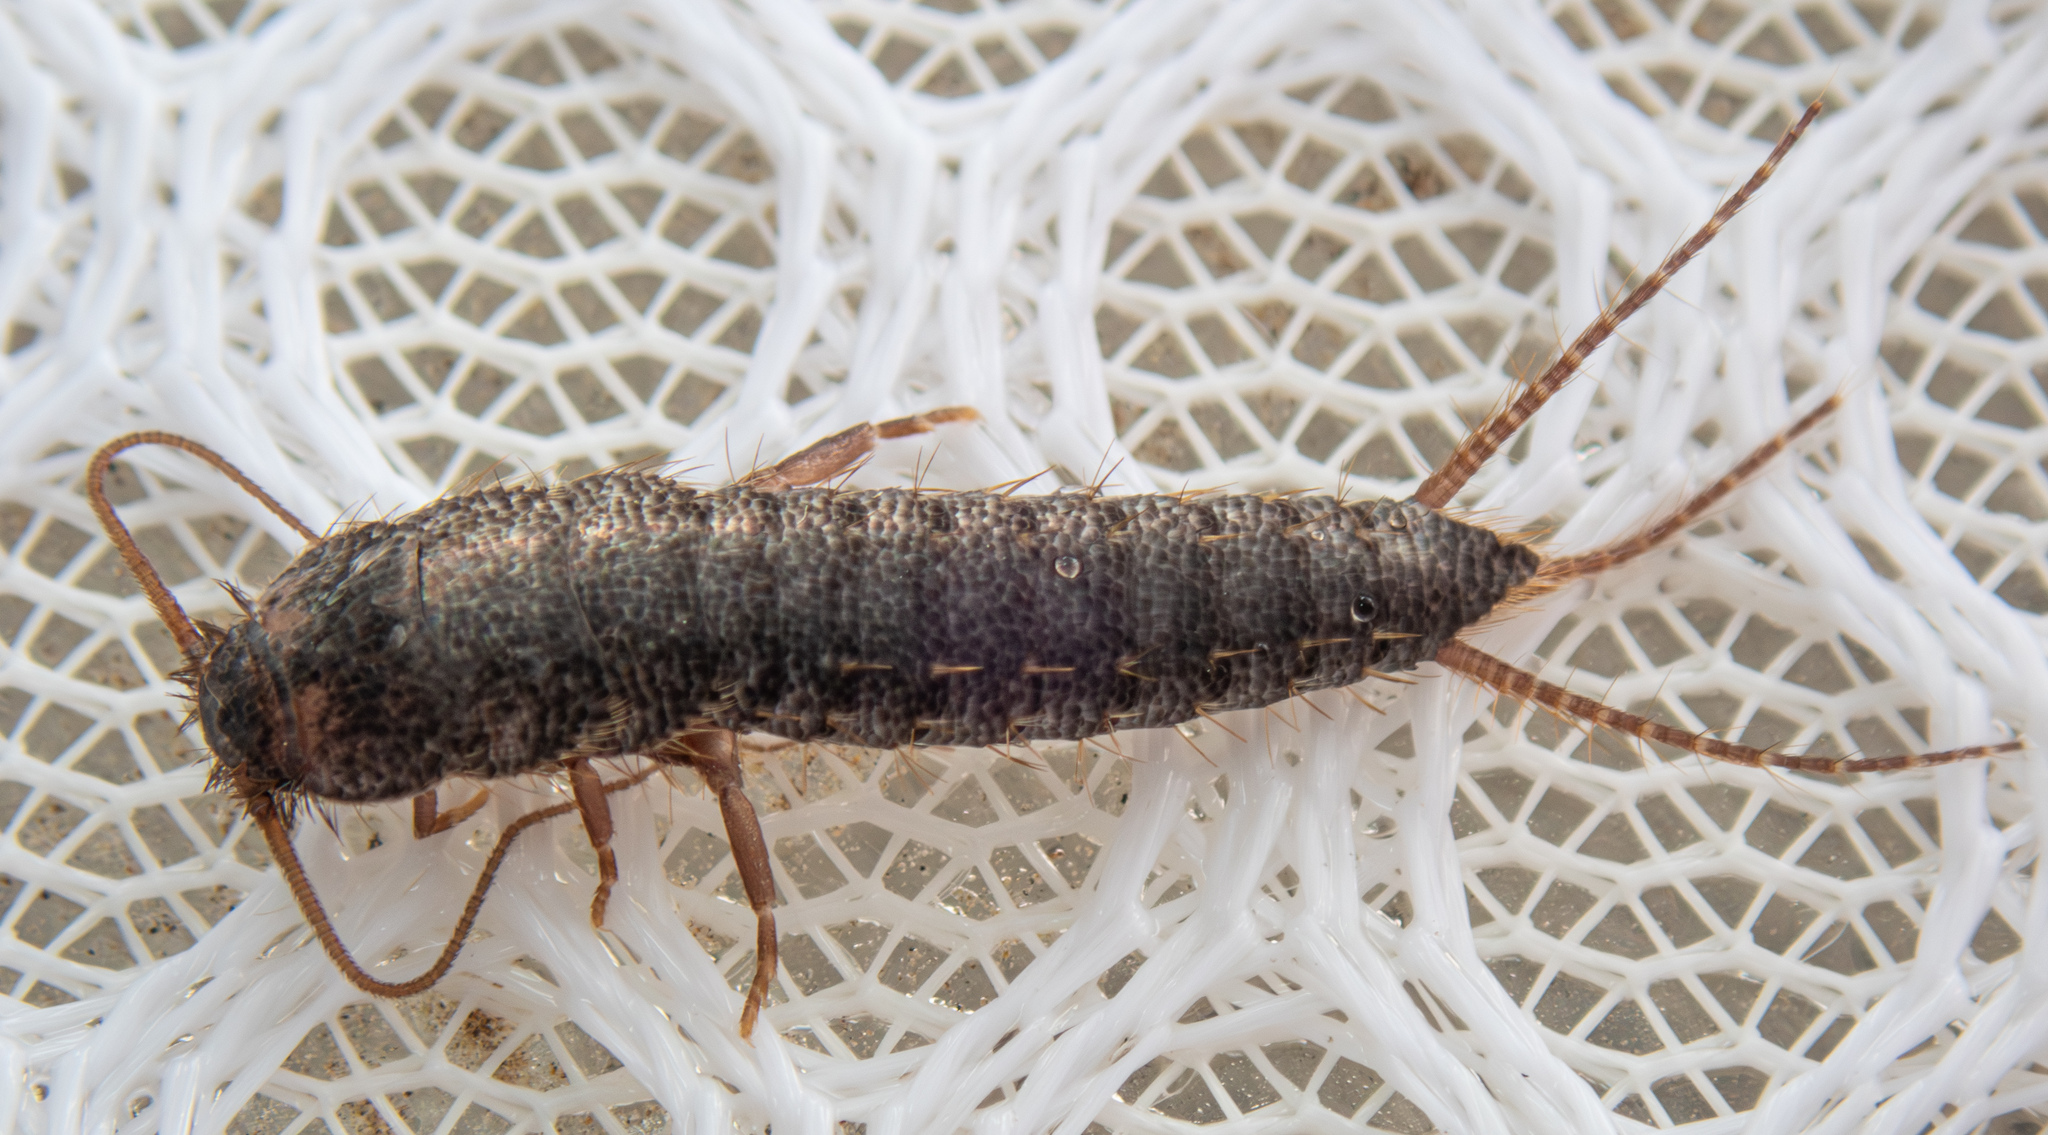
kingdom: Animalia
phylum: Arthropoda
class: Insecta
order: Zygentoma
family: Lepismatidae
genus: Allacrotelsa
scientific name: Allacrotelsa spinulata
